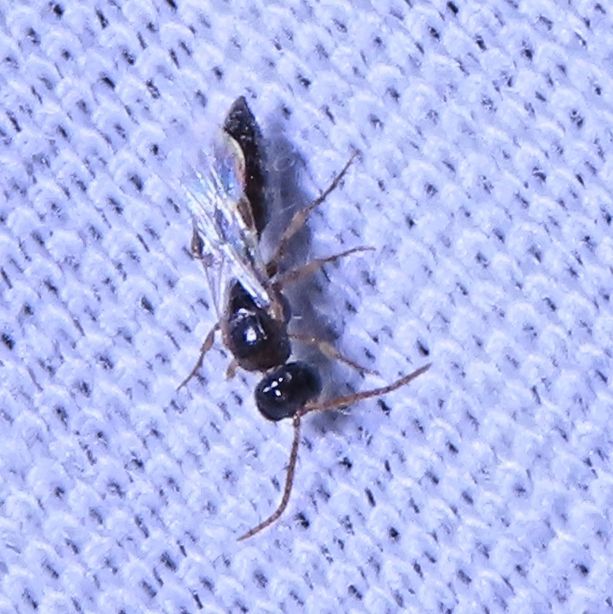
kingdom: Animalia
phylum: Arthropoda
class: Insecta
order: Hymenoptera
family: Tiphiidae
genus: Stilbopogon
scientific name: Stilbopogon
